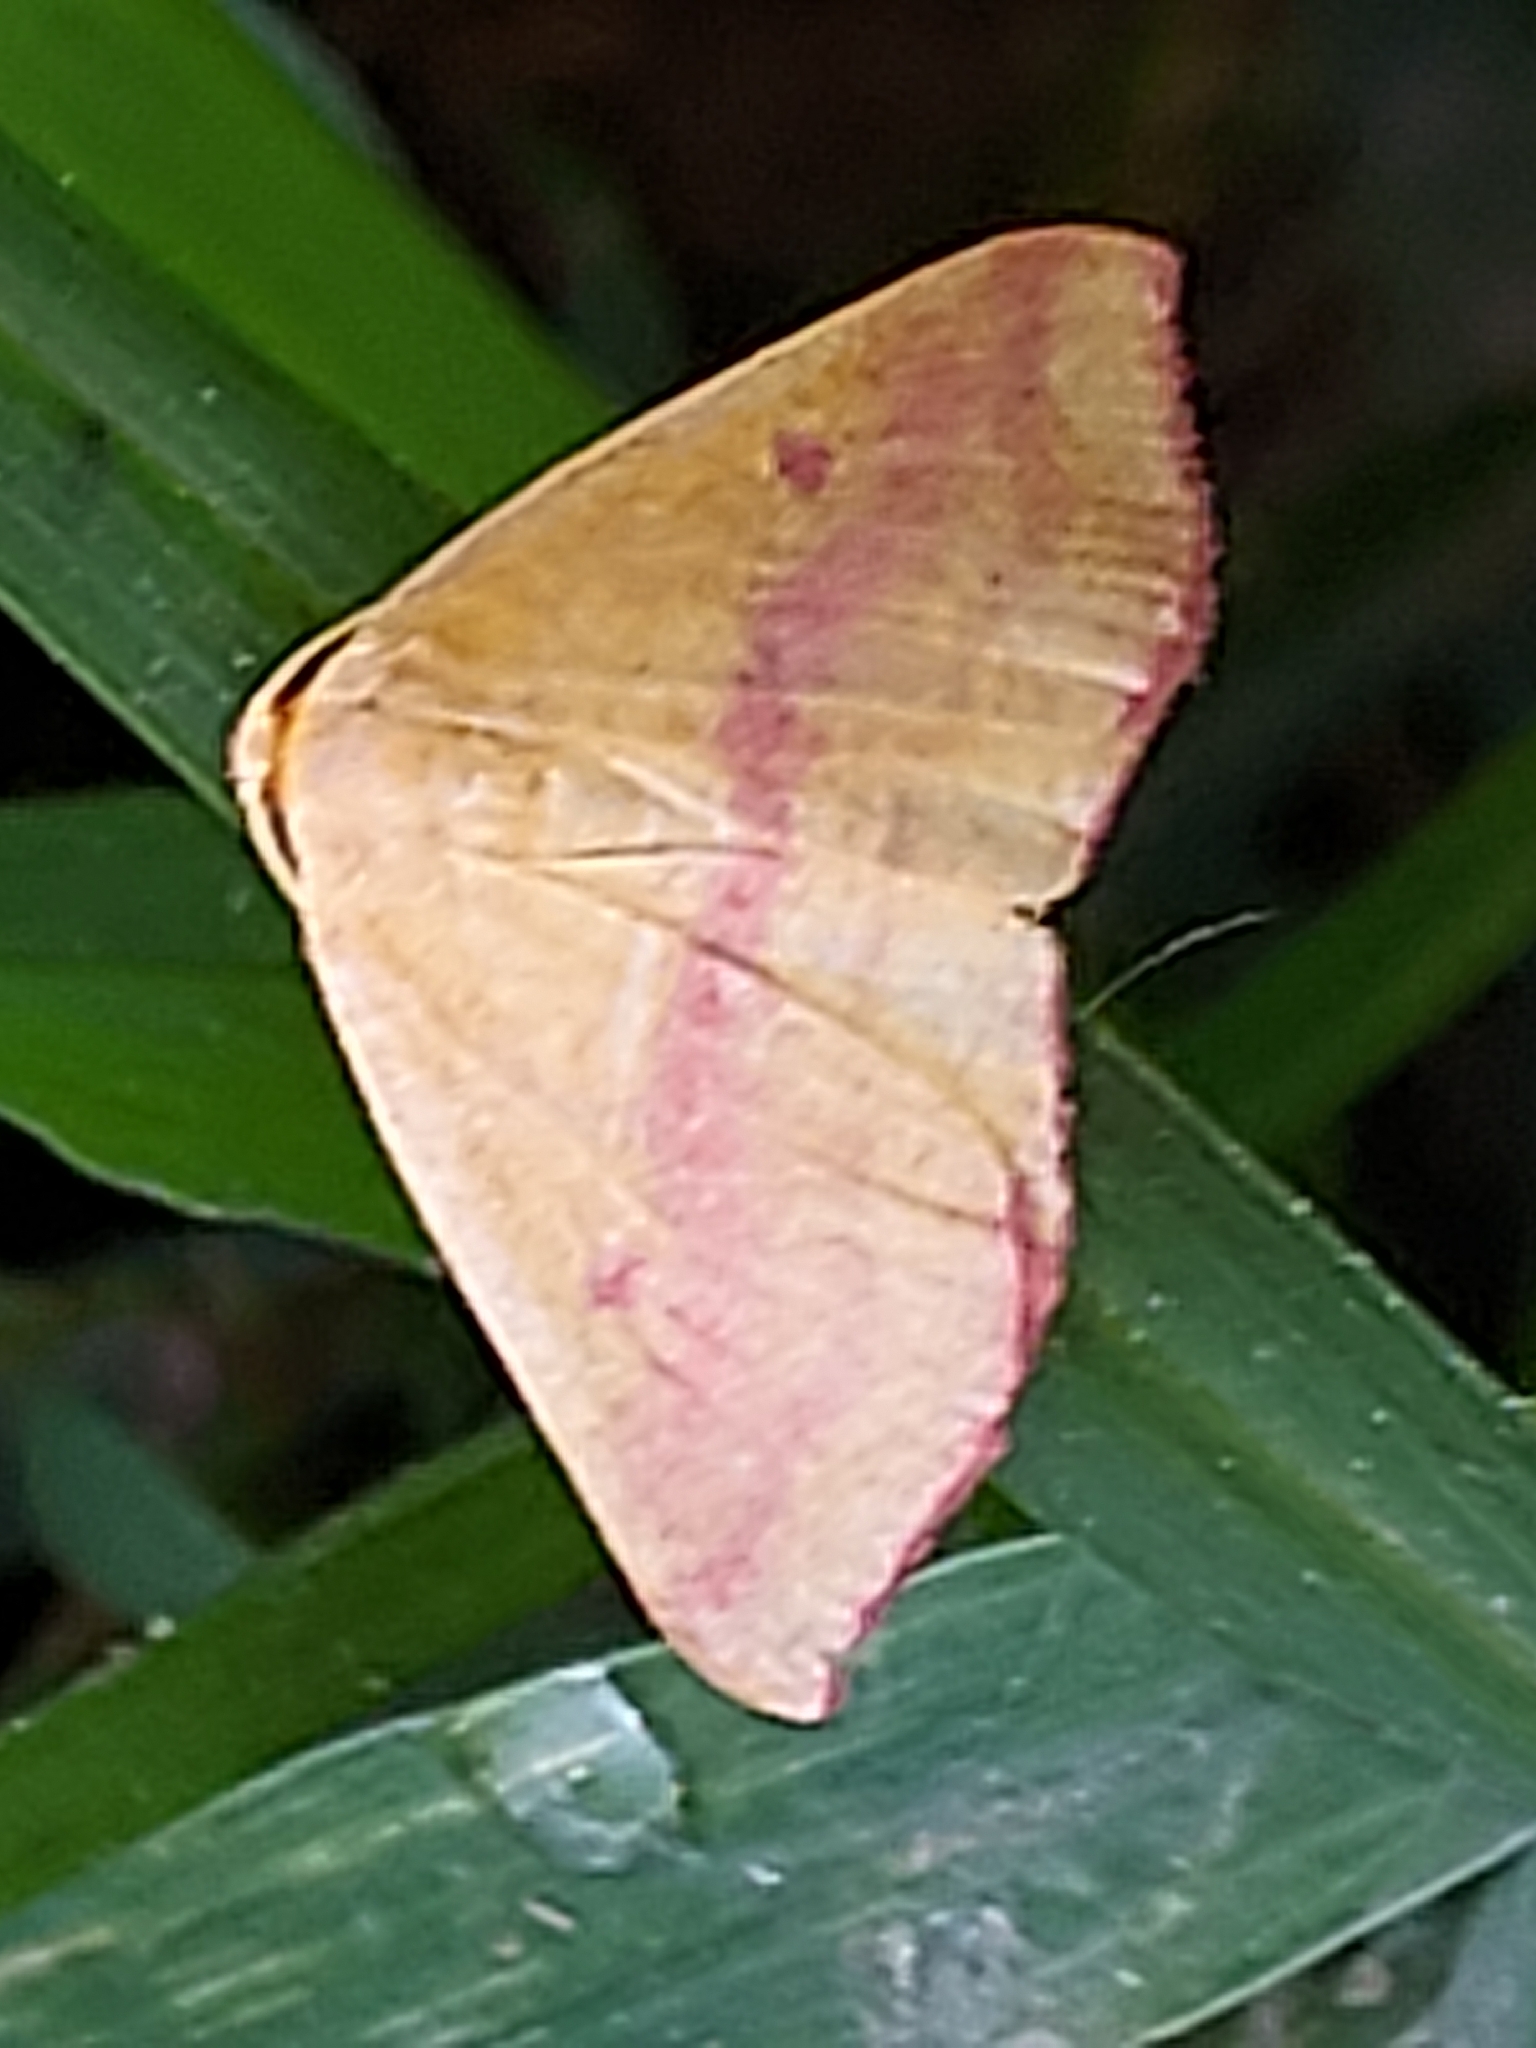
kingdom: Animalia
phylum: Arthropoda
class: Insecta
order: Lepidoptera
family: Geometridae
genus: Haematopis
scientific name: Haematopis grataria
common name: Chickweed geometer
